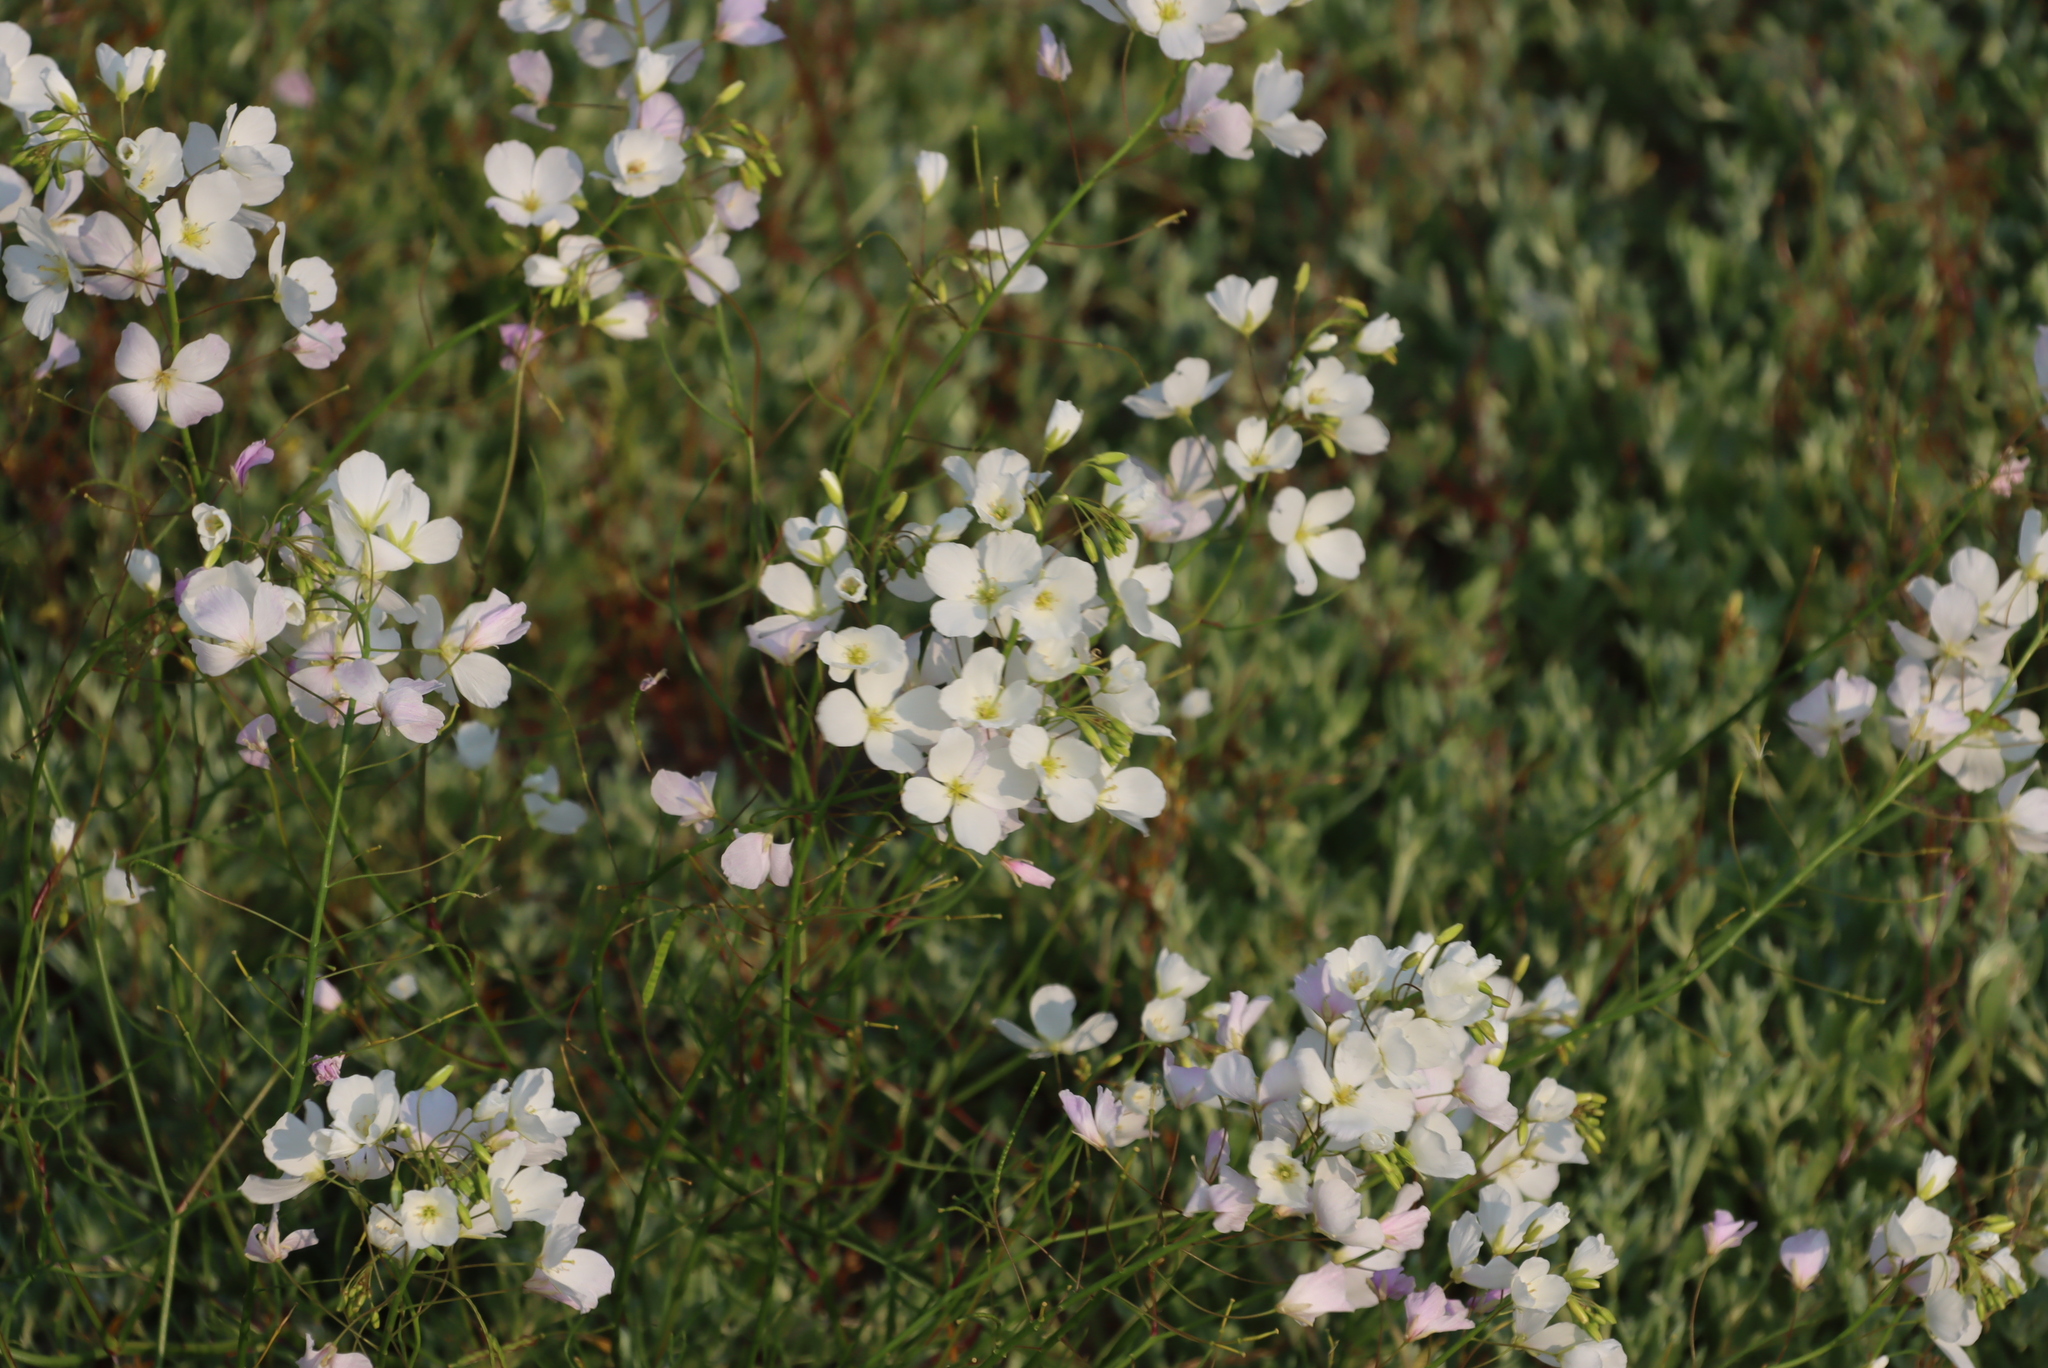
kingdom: Plantae
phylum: Tracheophyta
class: Magnoliopsida
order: Brassicales
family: Brassicaceae
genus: Heliophila
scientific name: Heliophila variabilis
